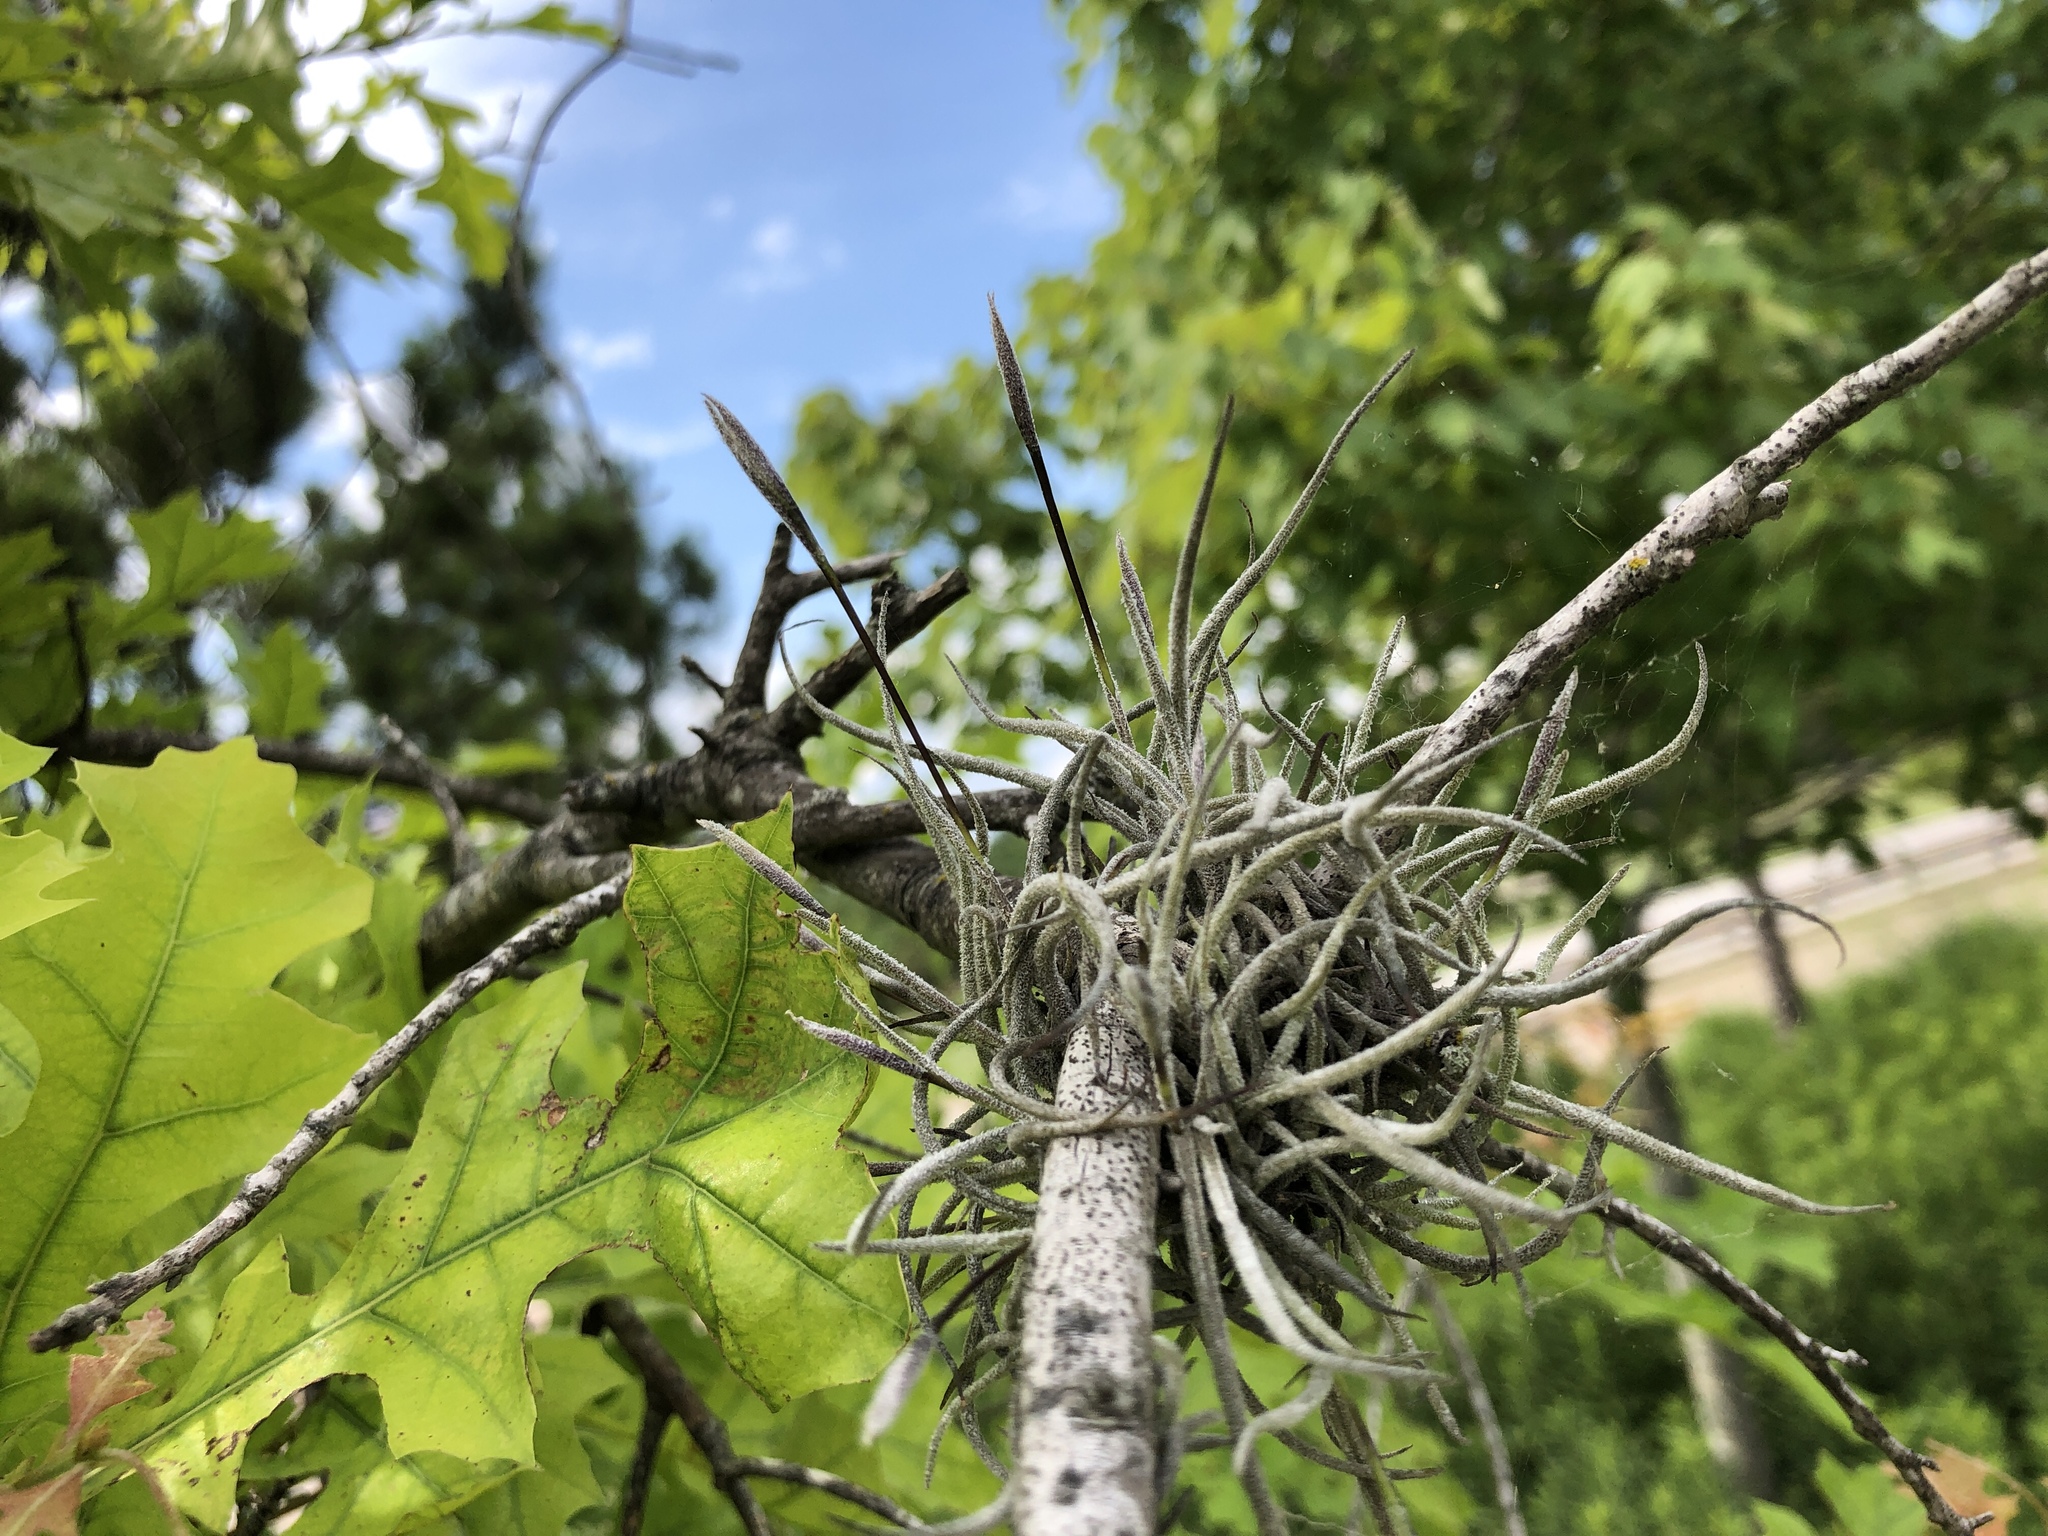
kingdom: Plantae
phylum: Tracheophyta
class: Liliopsida
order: Poales
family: Bromeliaceae
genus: Tillandsia
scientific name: Tillandsia recurvata
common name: Small ballmoss
